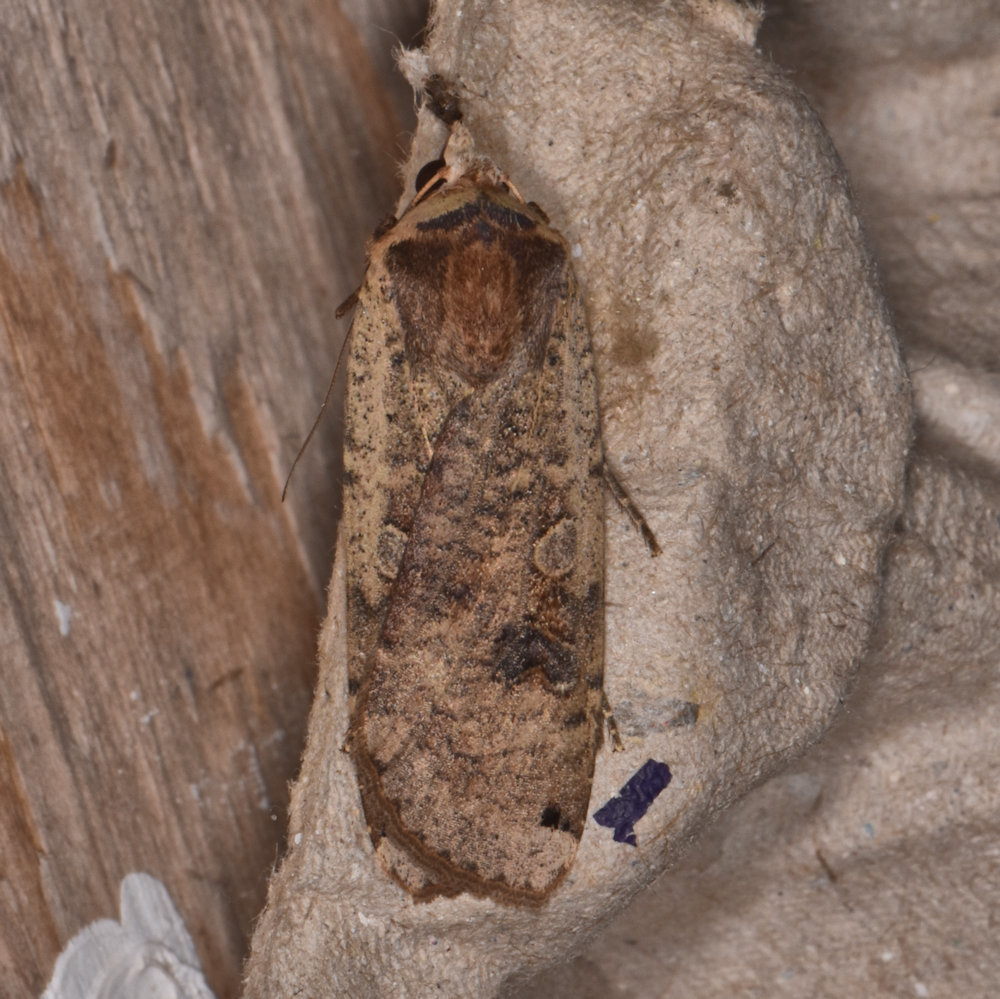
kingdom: Animalia
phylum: Arthropoda
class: Insecta
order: Lepidoptera
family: Noctuidae
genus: Noctua
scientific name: Noctua pronuba
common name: Large yellow underwing
